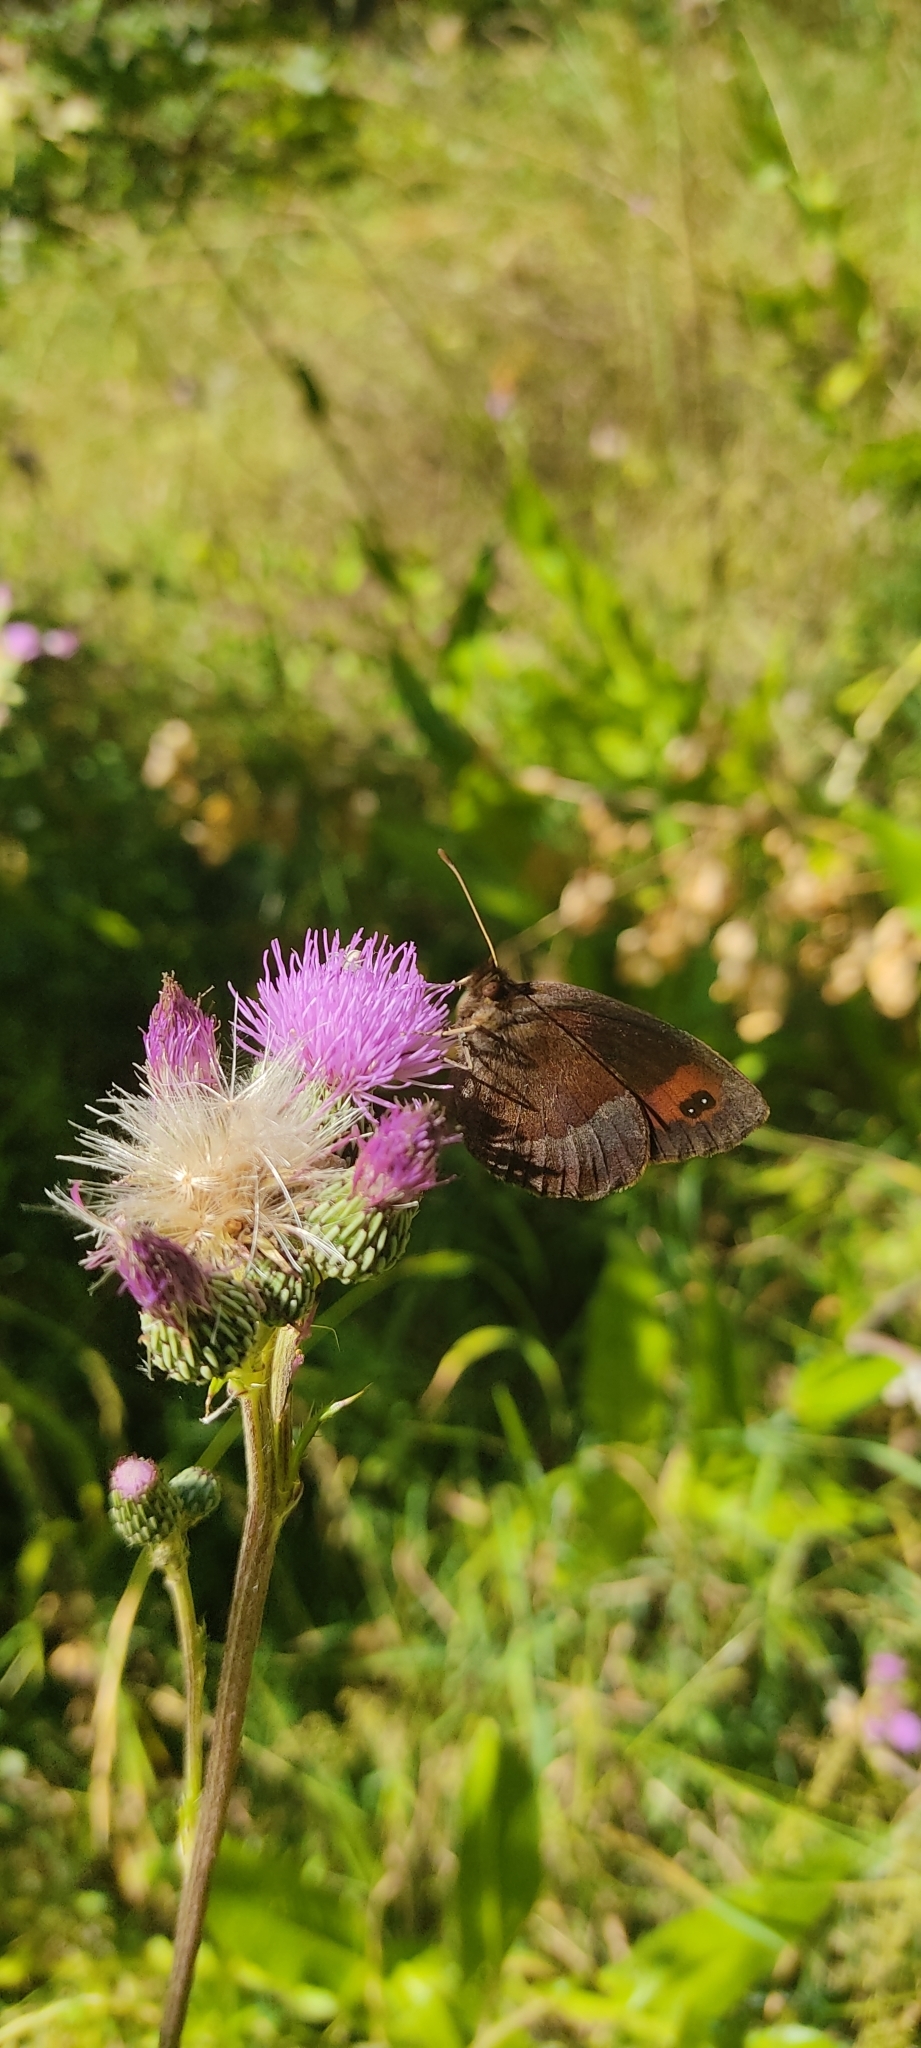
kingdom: Animalia
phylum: Arthropoda
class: Insecta
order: Lepidoptera
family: Nymphalidae
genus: Erebia
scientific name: Erebia neoridas
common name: Autumn ringlet
